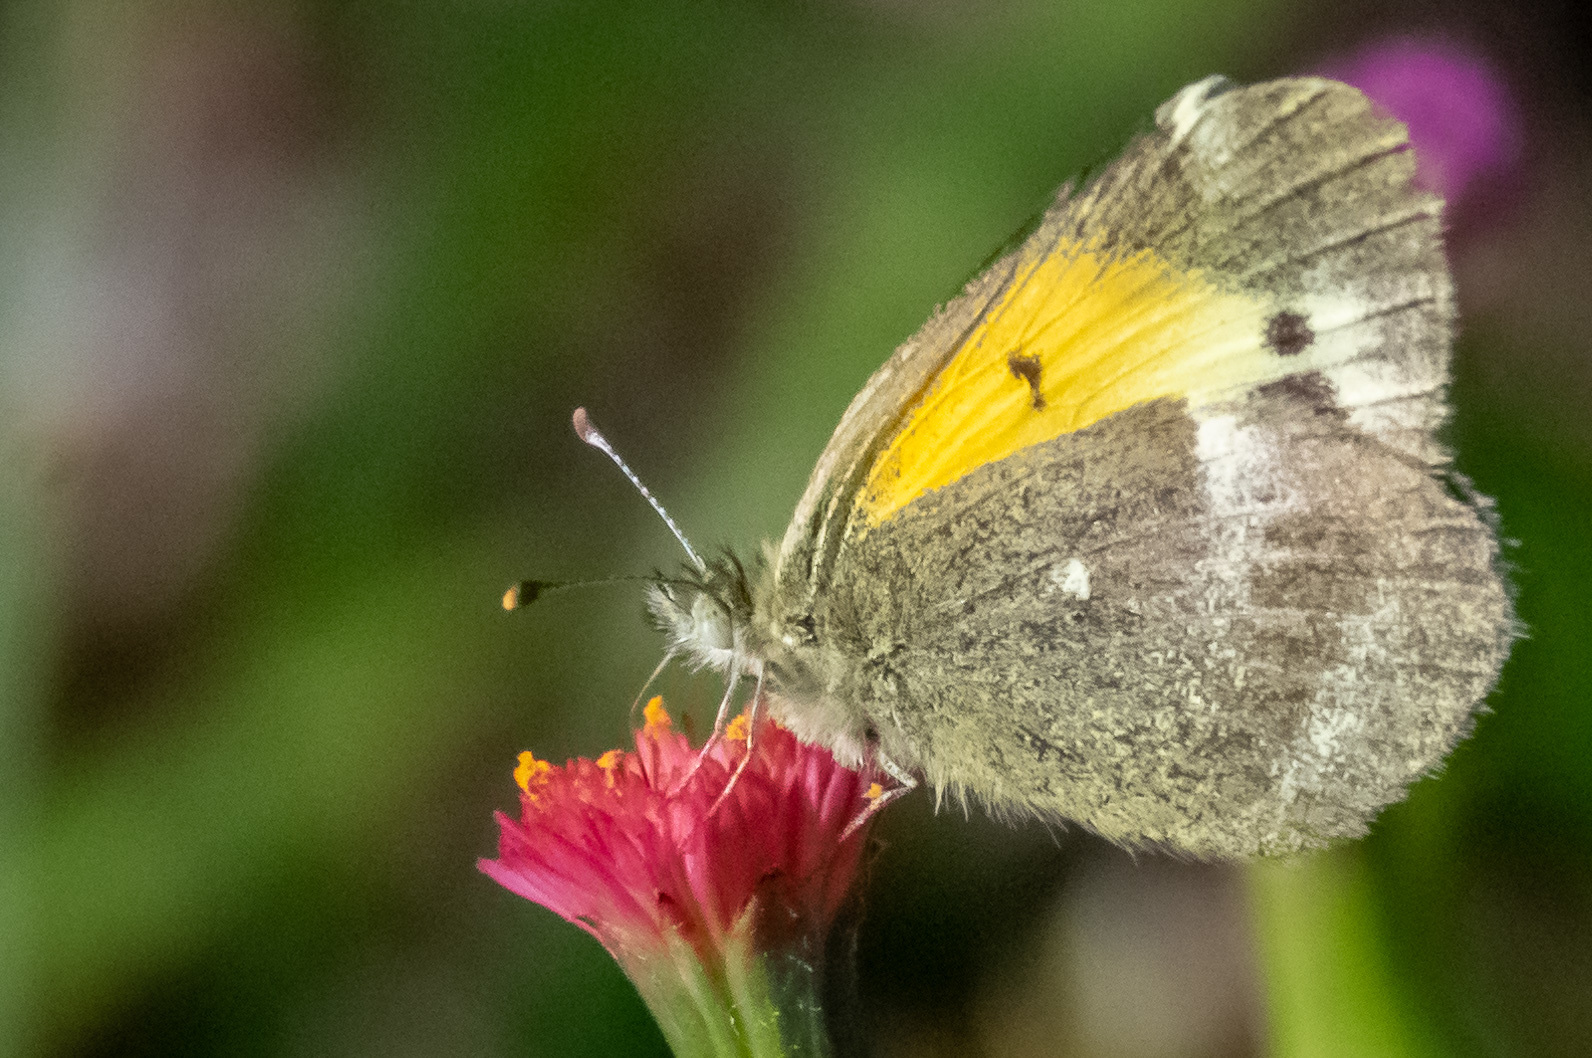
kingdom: Animalia
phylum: Arthropoda
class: Insecta
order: Lepidoptera
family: Pieridae
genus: Nathalis
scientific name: Nathalis iole
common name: Dainty sulphur
